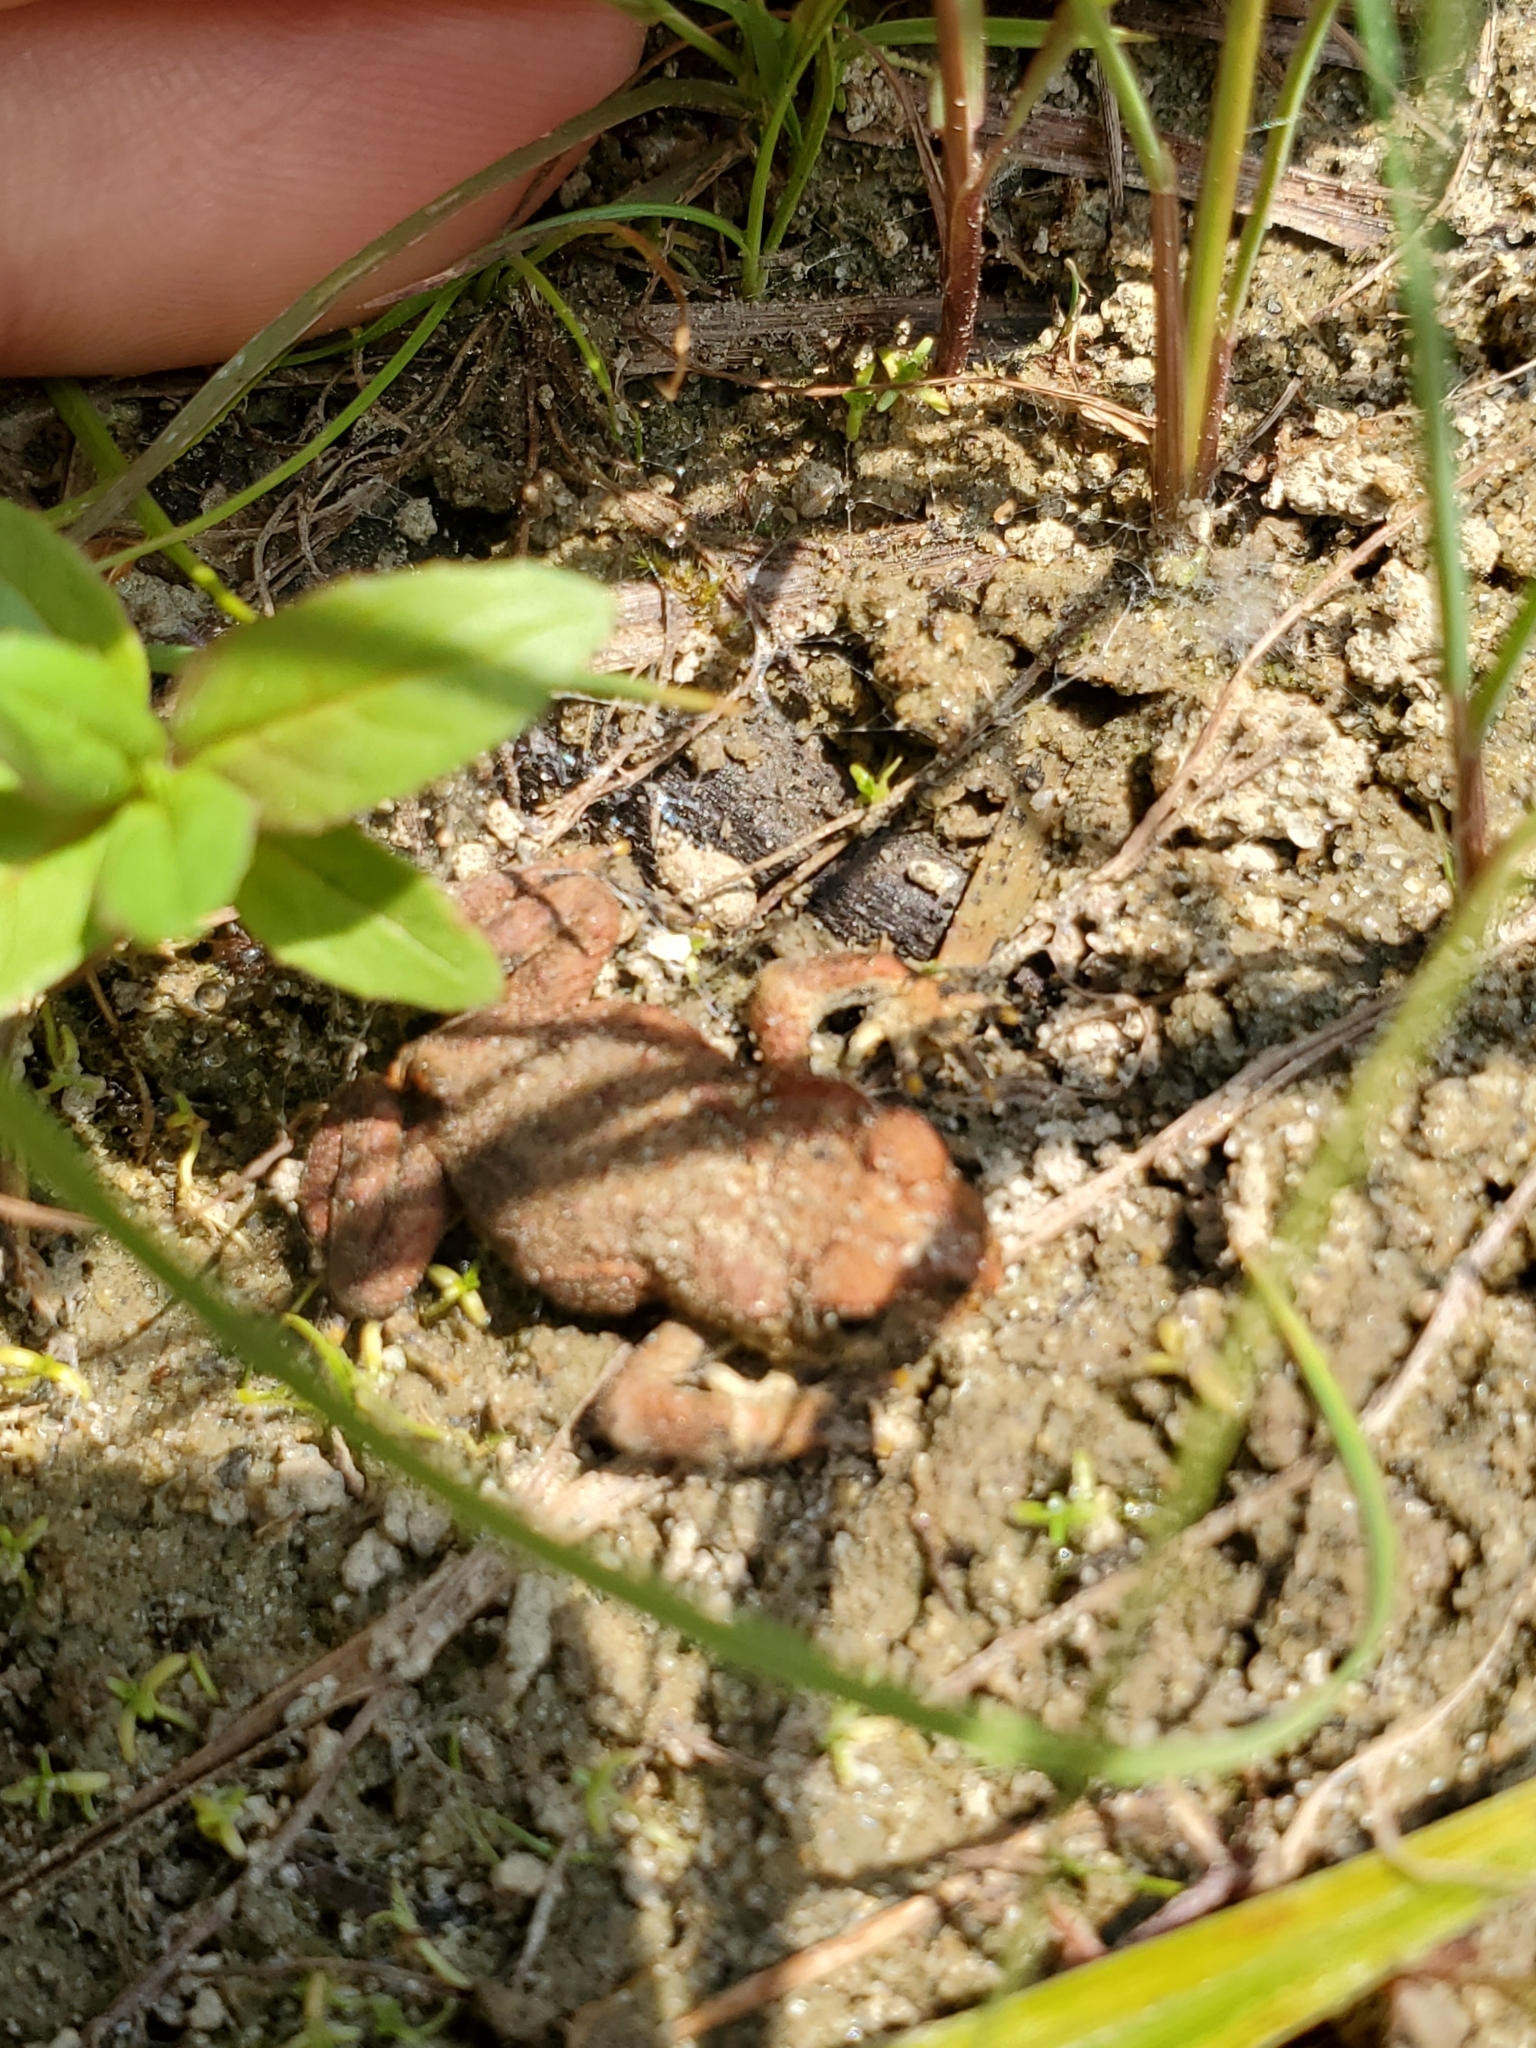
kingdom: Animalia
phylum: Chordata
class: Amphibia
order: Anura
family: Bufonidae
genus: Anaxyrus
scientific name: Anaxyrus boreas
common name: Western toad
